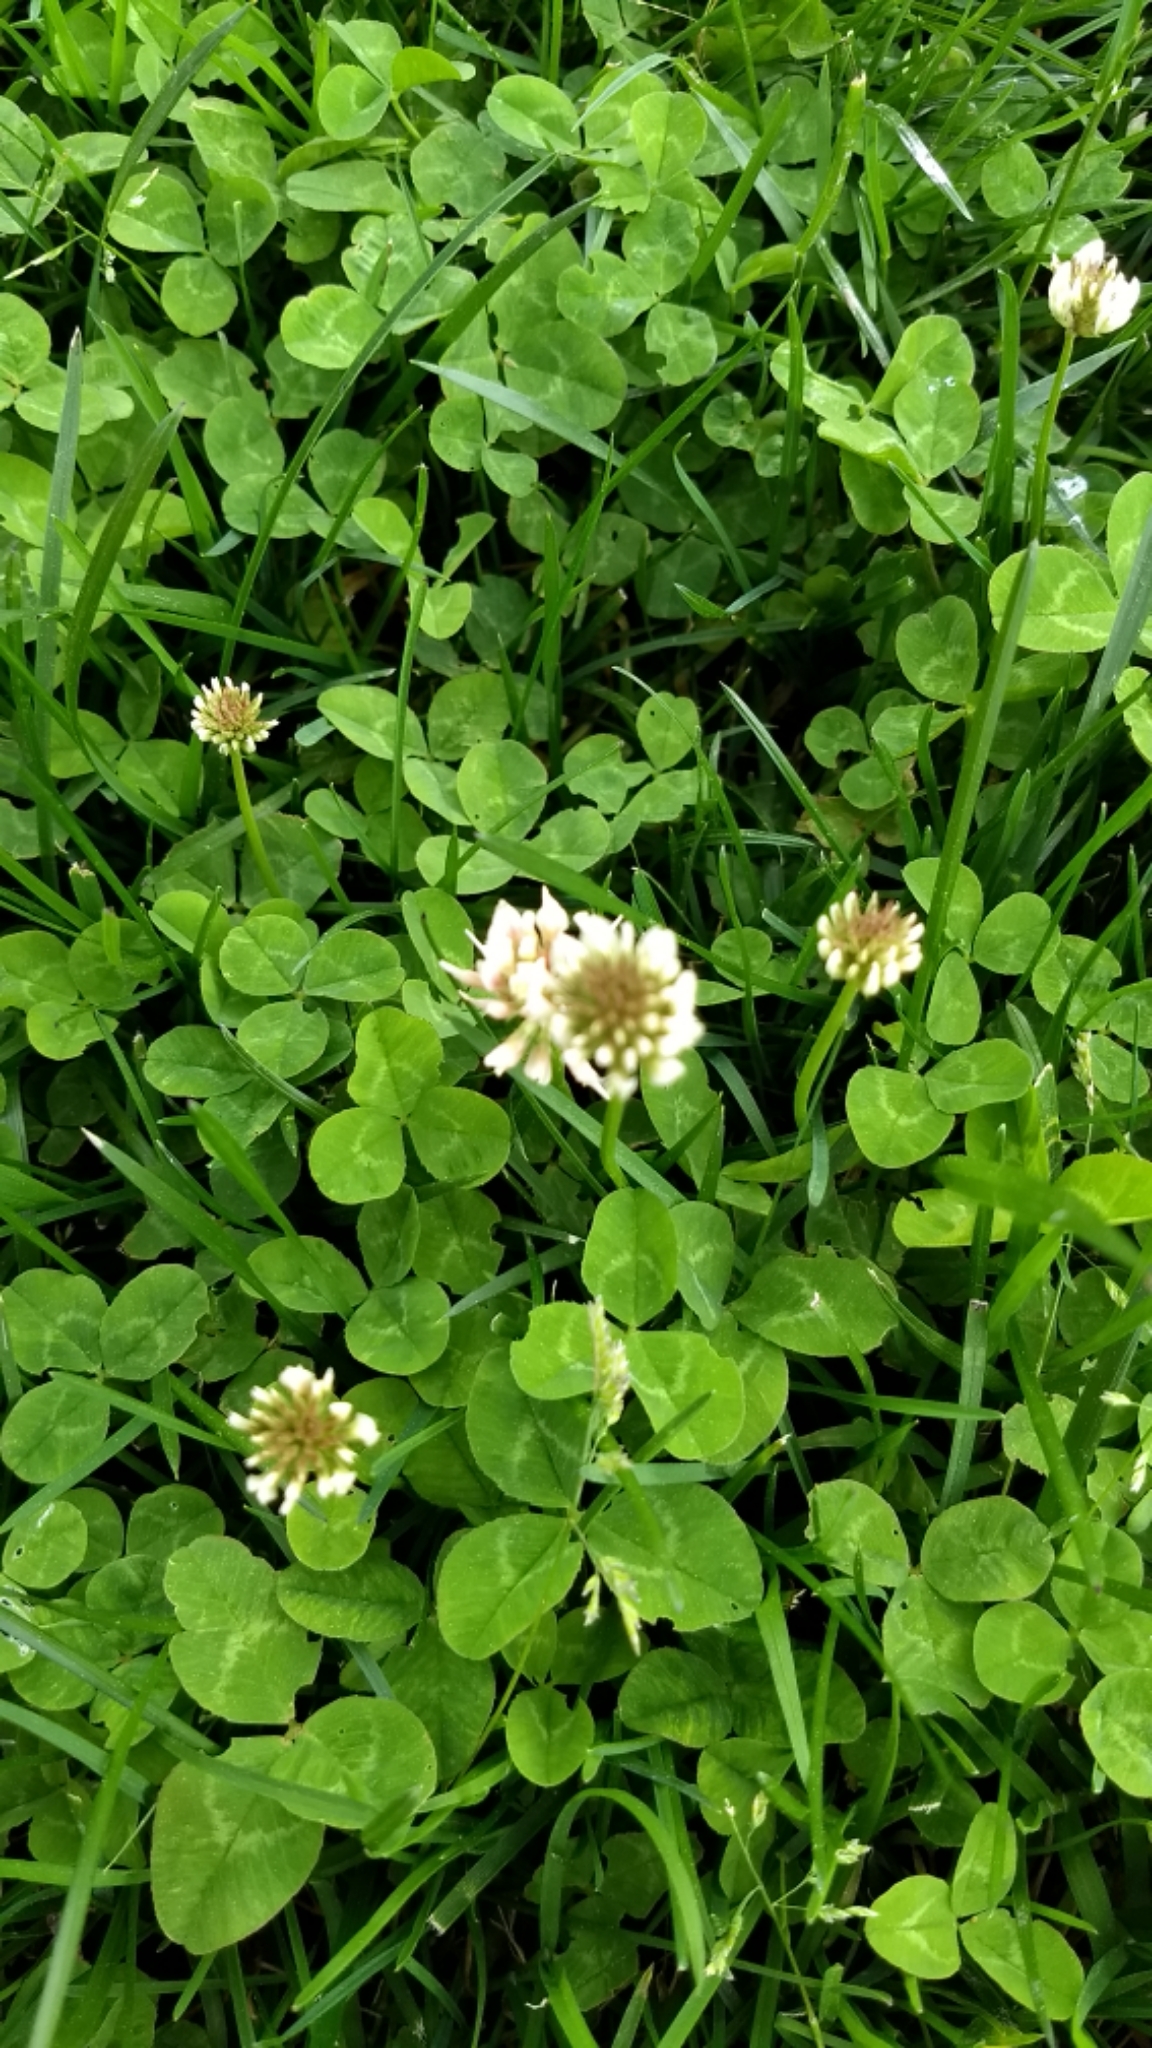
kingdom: Plantae
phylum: Tracheophyta
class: Magnoliopsida
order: Fabales
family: Fabaceae
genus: Trifolium
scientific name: Trifolium repens
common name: White clover
